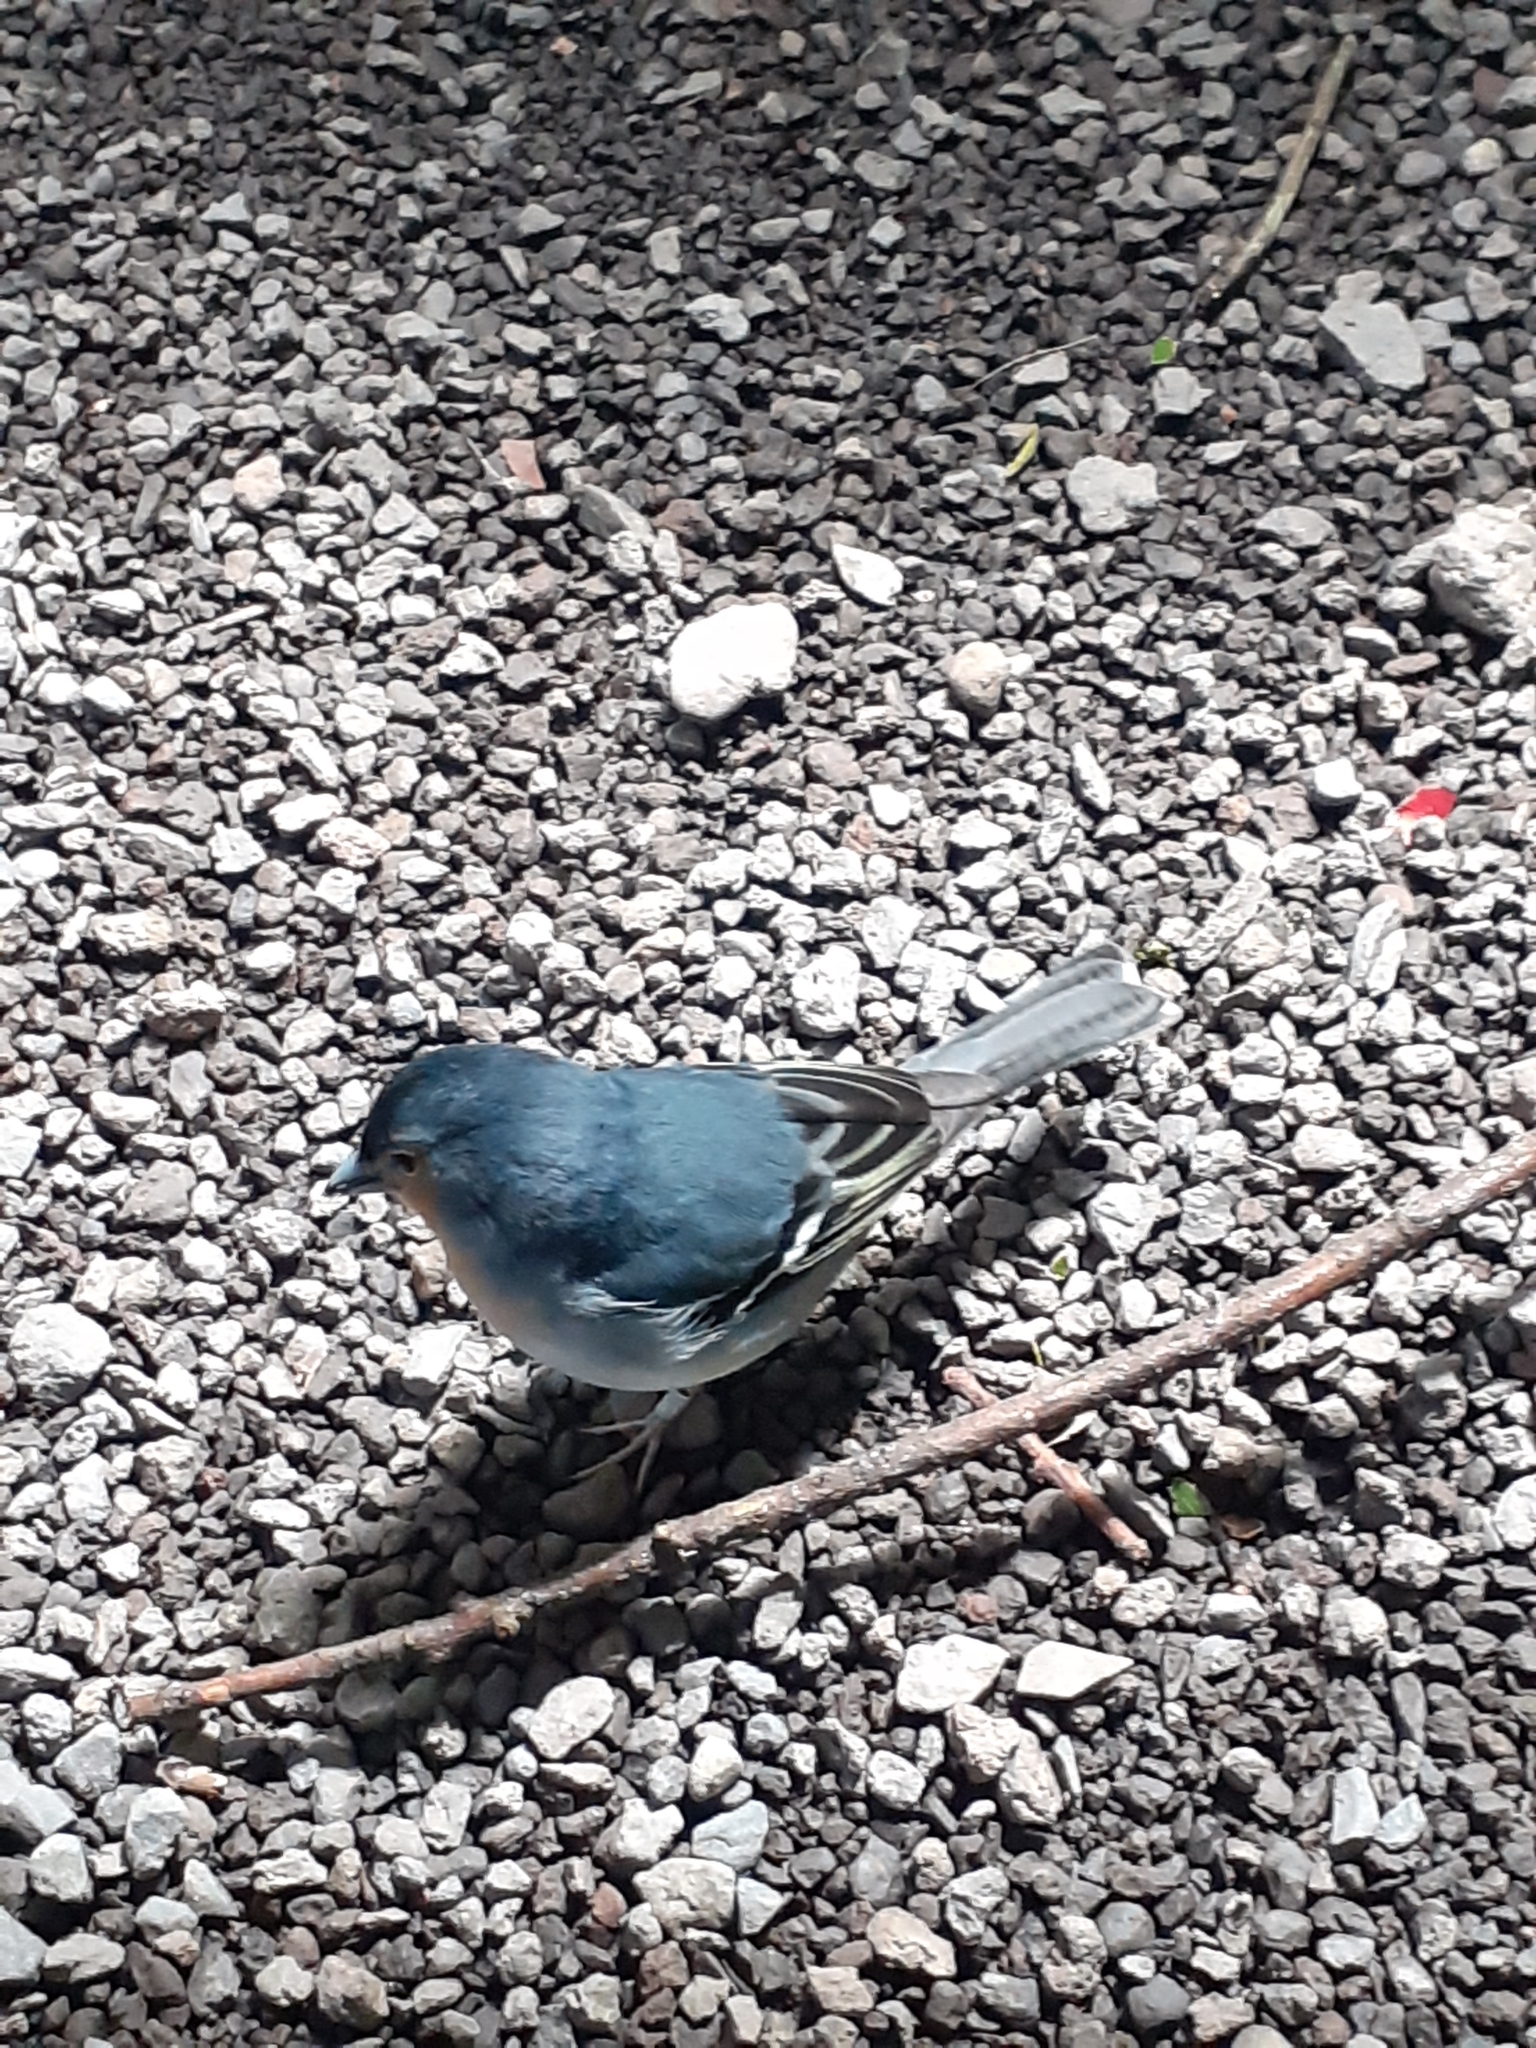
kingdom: Animalia
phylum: Chordata
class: Aves
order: Passeriformes
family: Fringillidae
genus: Fringilla
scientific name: Fringilla canariensis
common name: Canary islands chaffinch
